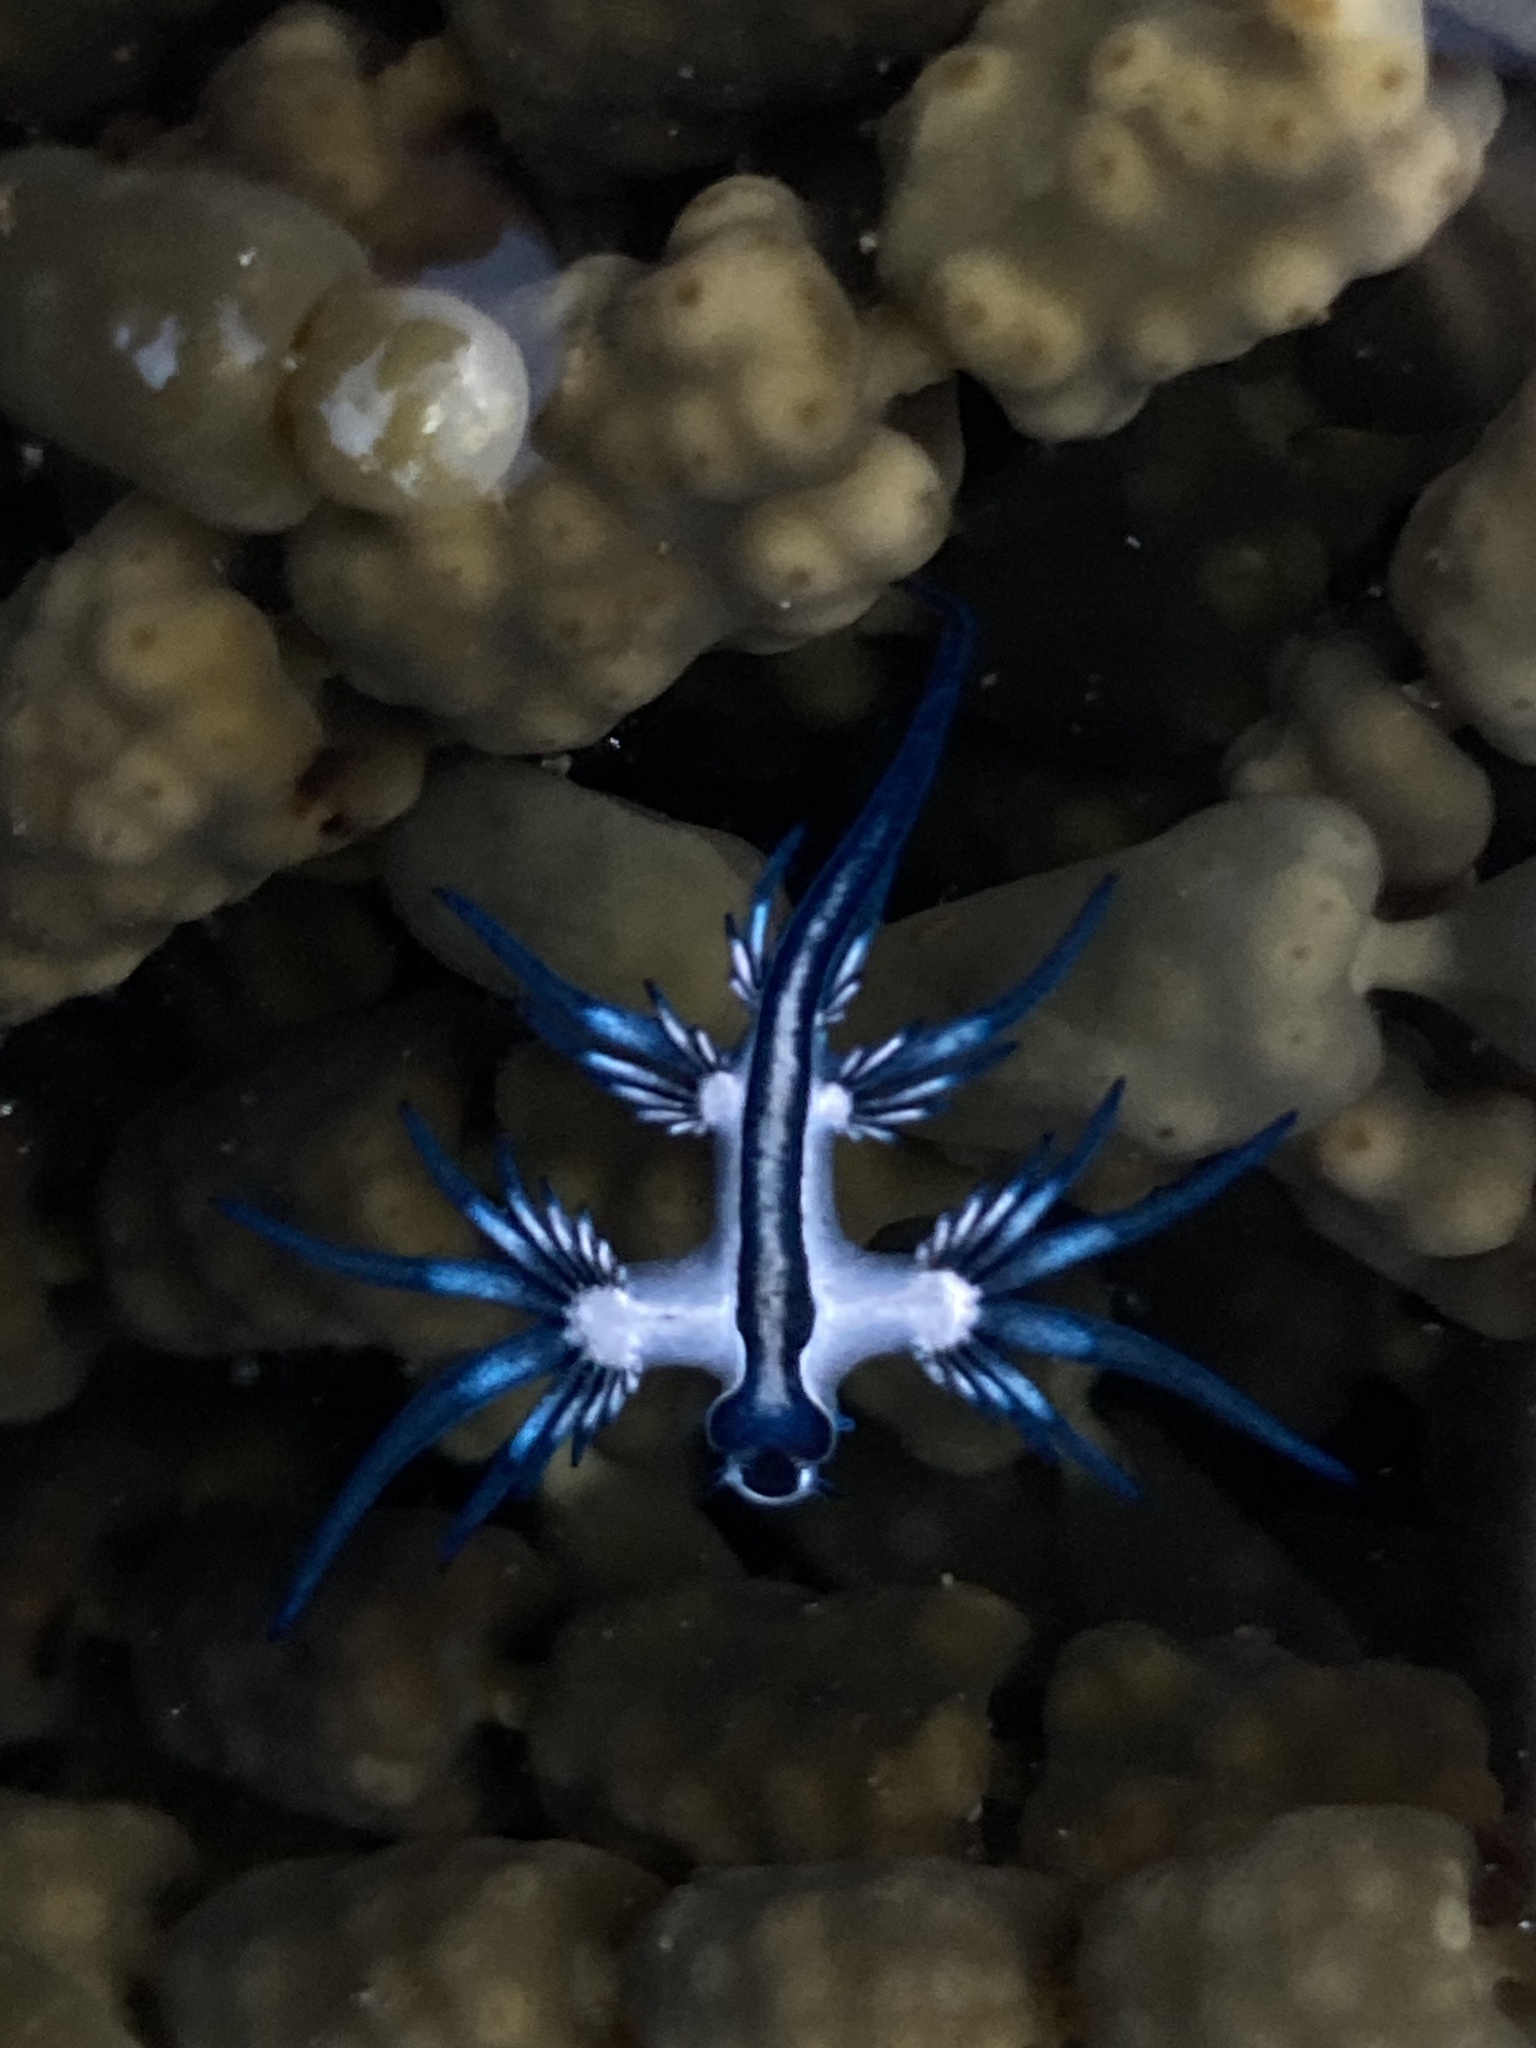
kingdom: Animalia
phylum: Mollusca
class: Gastropoda
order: Nudibranchia
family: Glaucidae
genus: Glaucus
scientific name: Glaucus atlanticus
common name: Purple ocean slug
